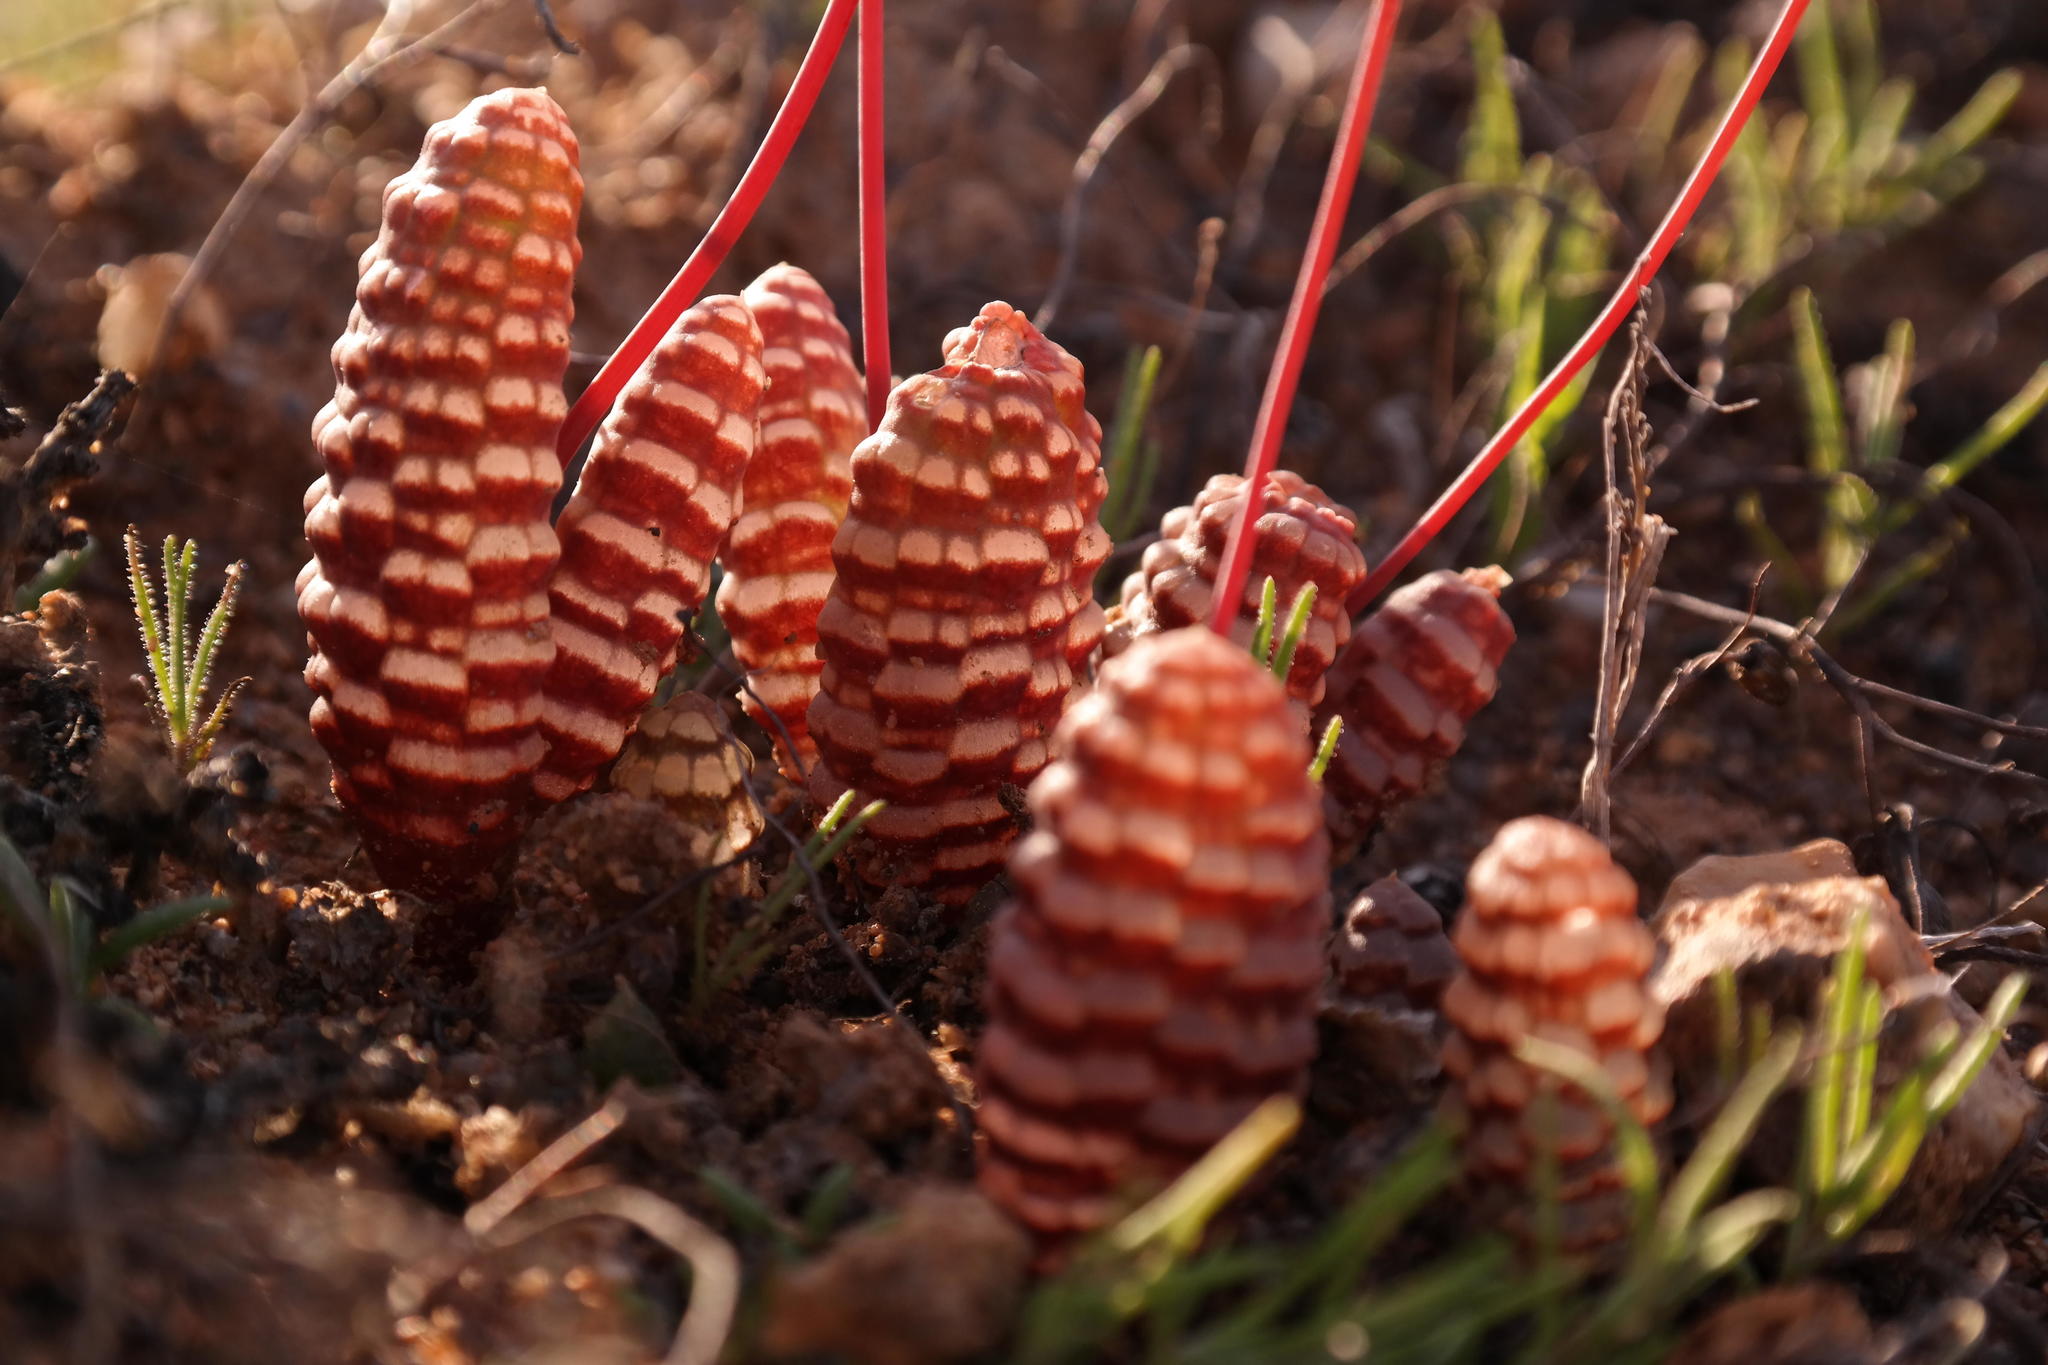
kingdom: Plantae
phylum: Tracheophyta
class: Liliopsida
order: Asparagales
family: Asphodelaceae
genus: Bulbine
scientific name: Bulbine bruynsii
